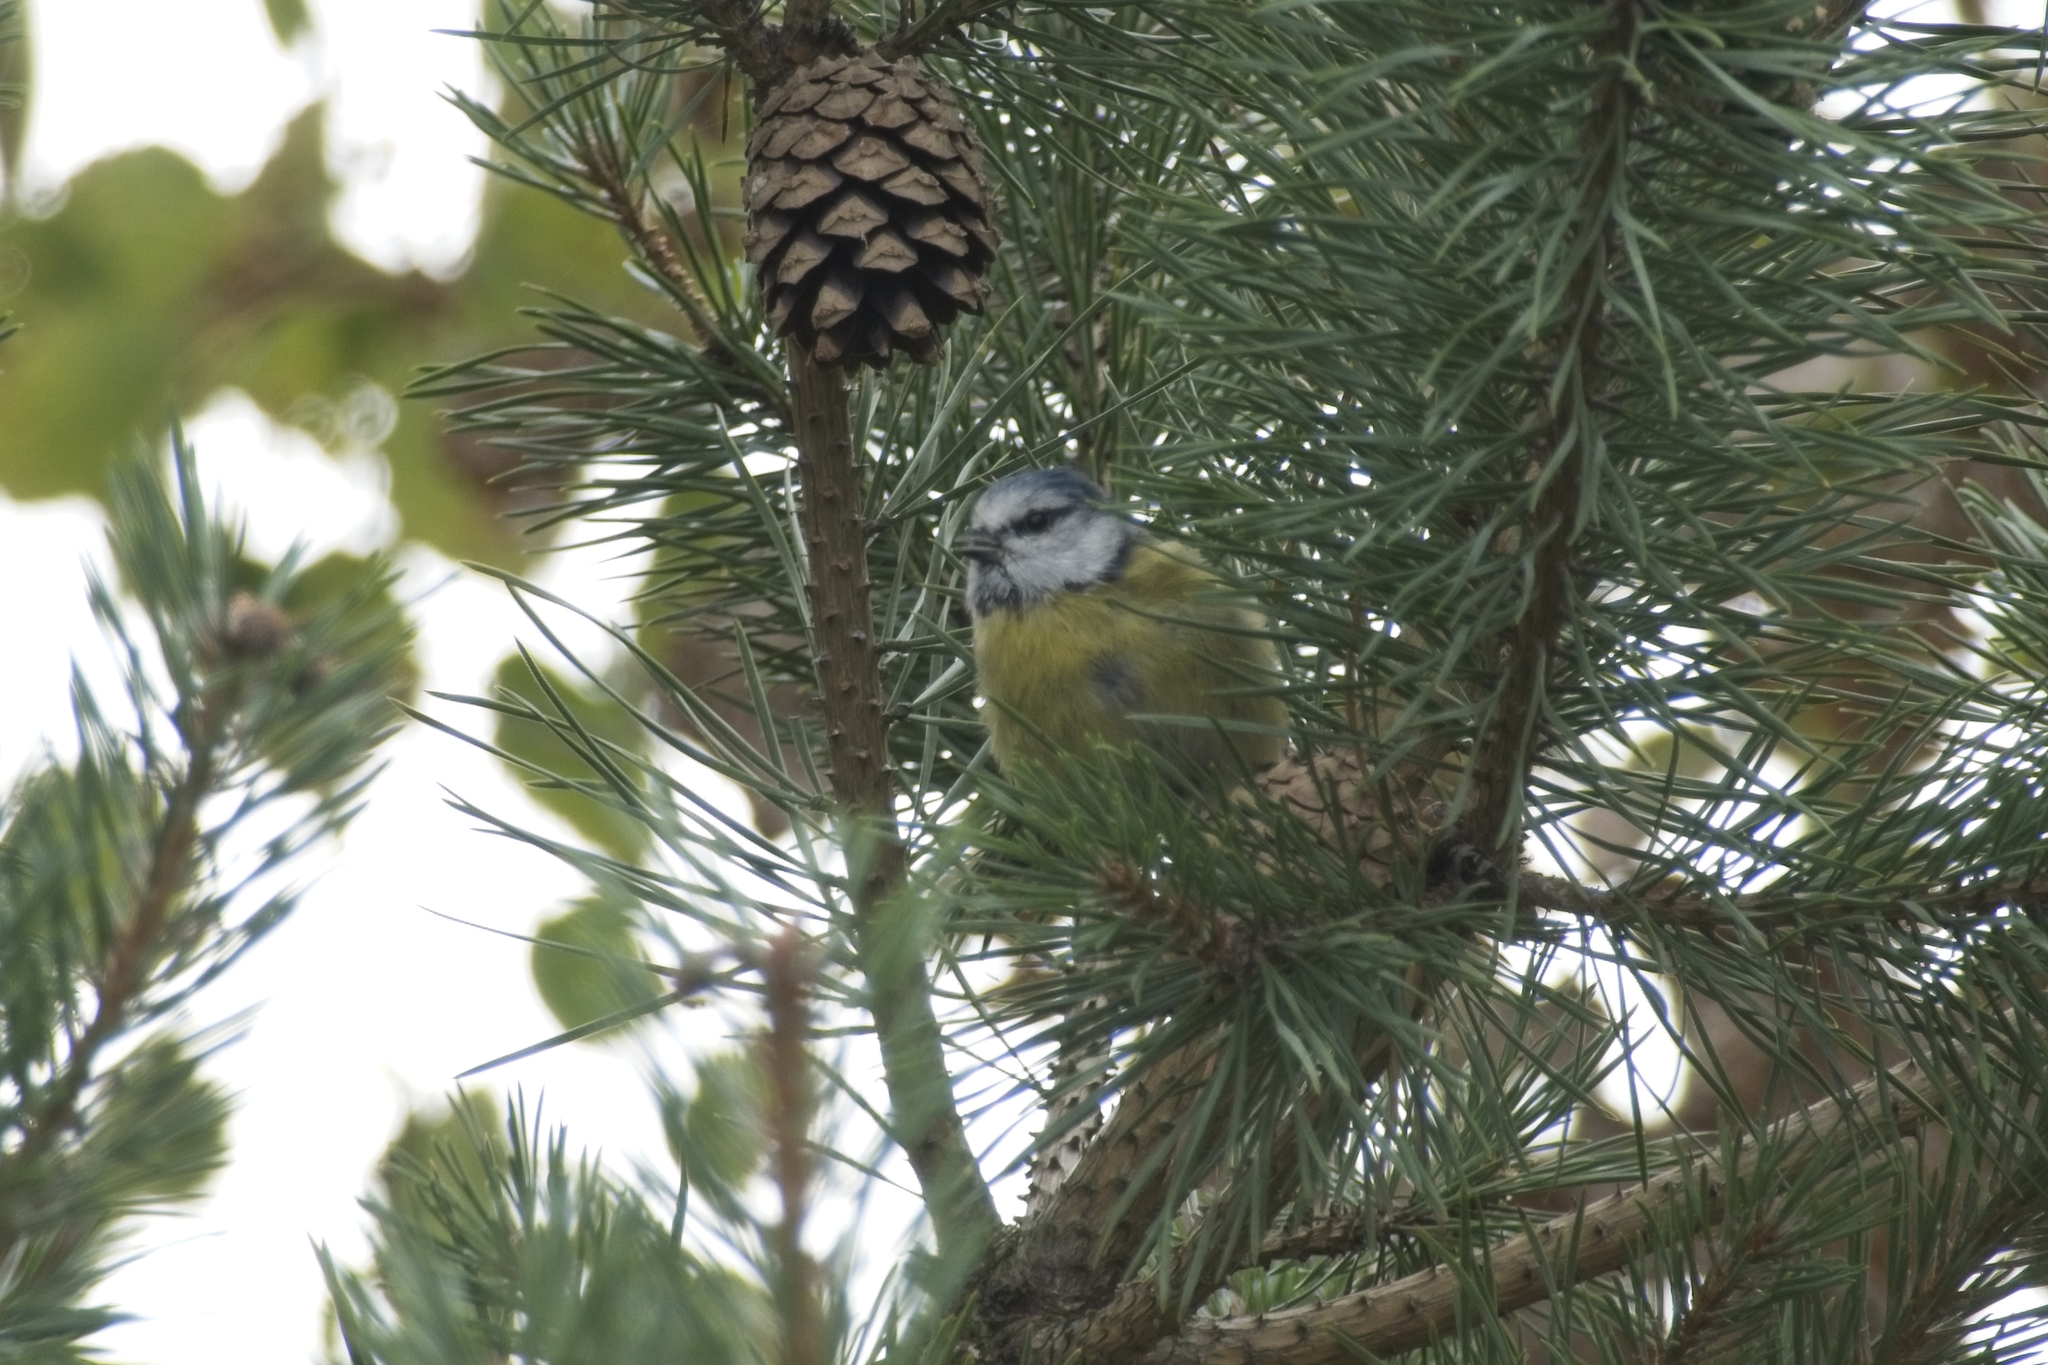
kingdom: Animalia
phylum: Chordata
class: Aves
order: Passeriformes
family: Paridae
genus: Cyanistes
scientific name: Cyanistes caeruleus
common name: Eurasian blue tit
